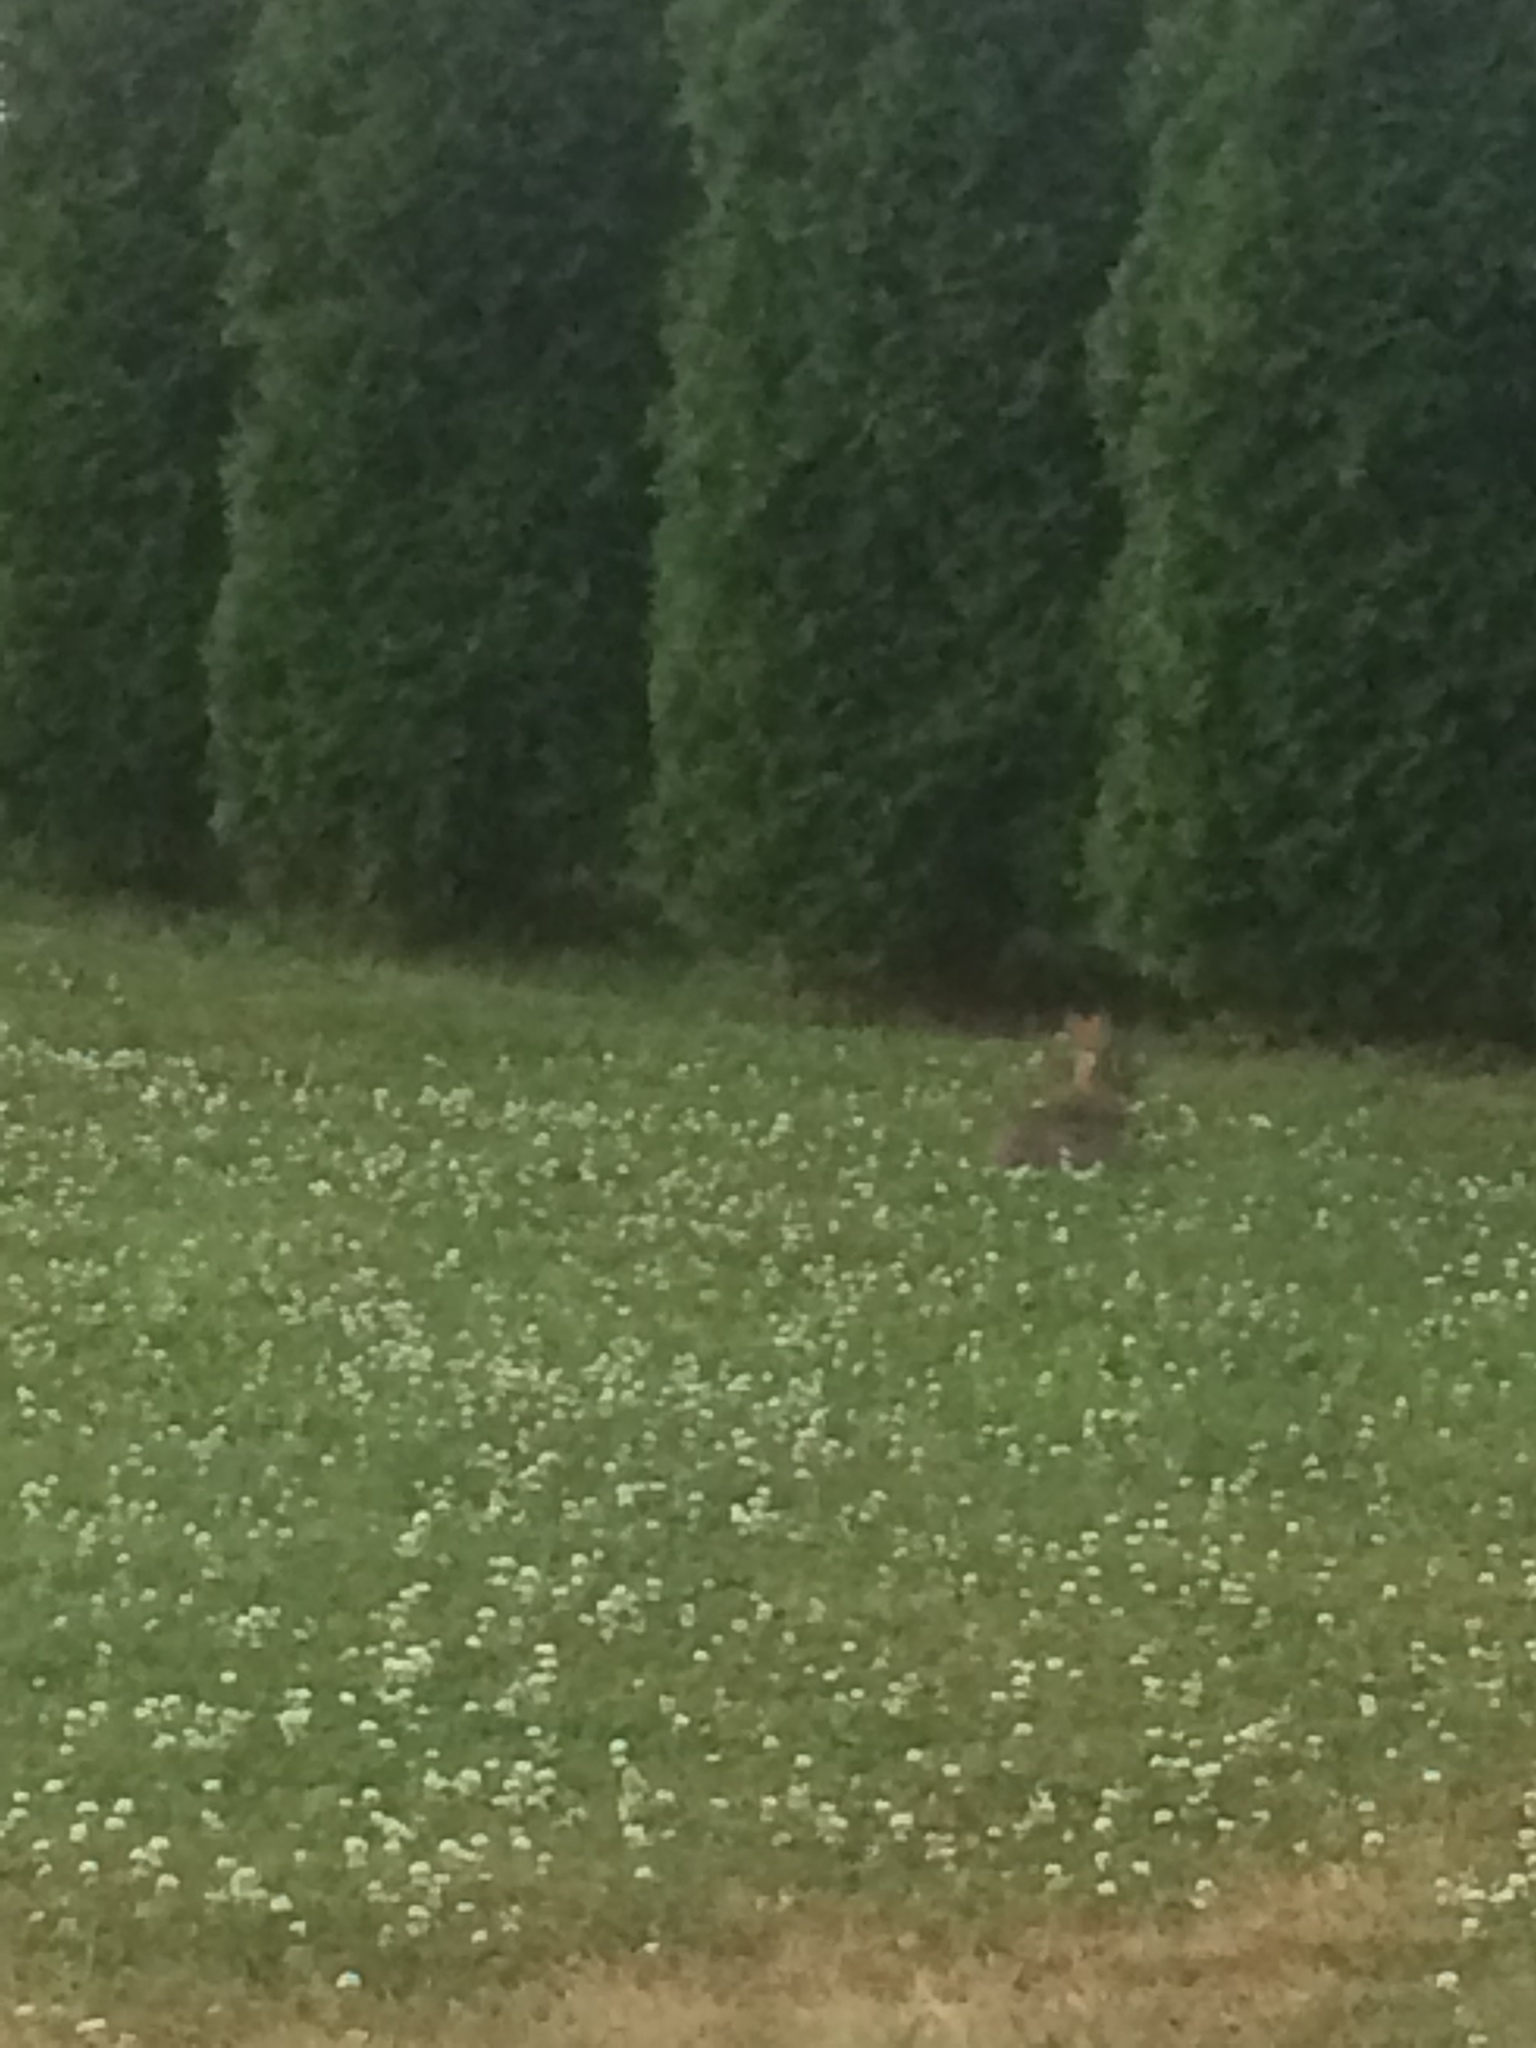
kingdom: Animalia
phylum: Chordata
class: Mammalia
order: Lagomorpha
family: Leporidae
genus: Sylvilagus
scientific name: Sylvilagus floridanus
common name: Eastern cottontail
